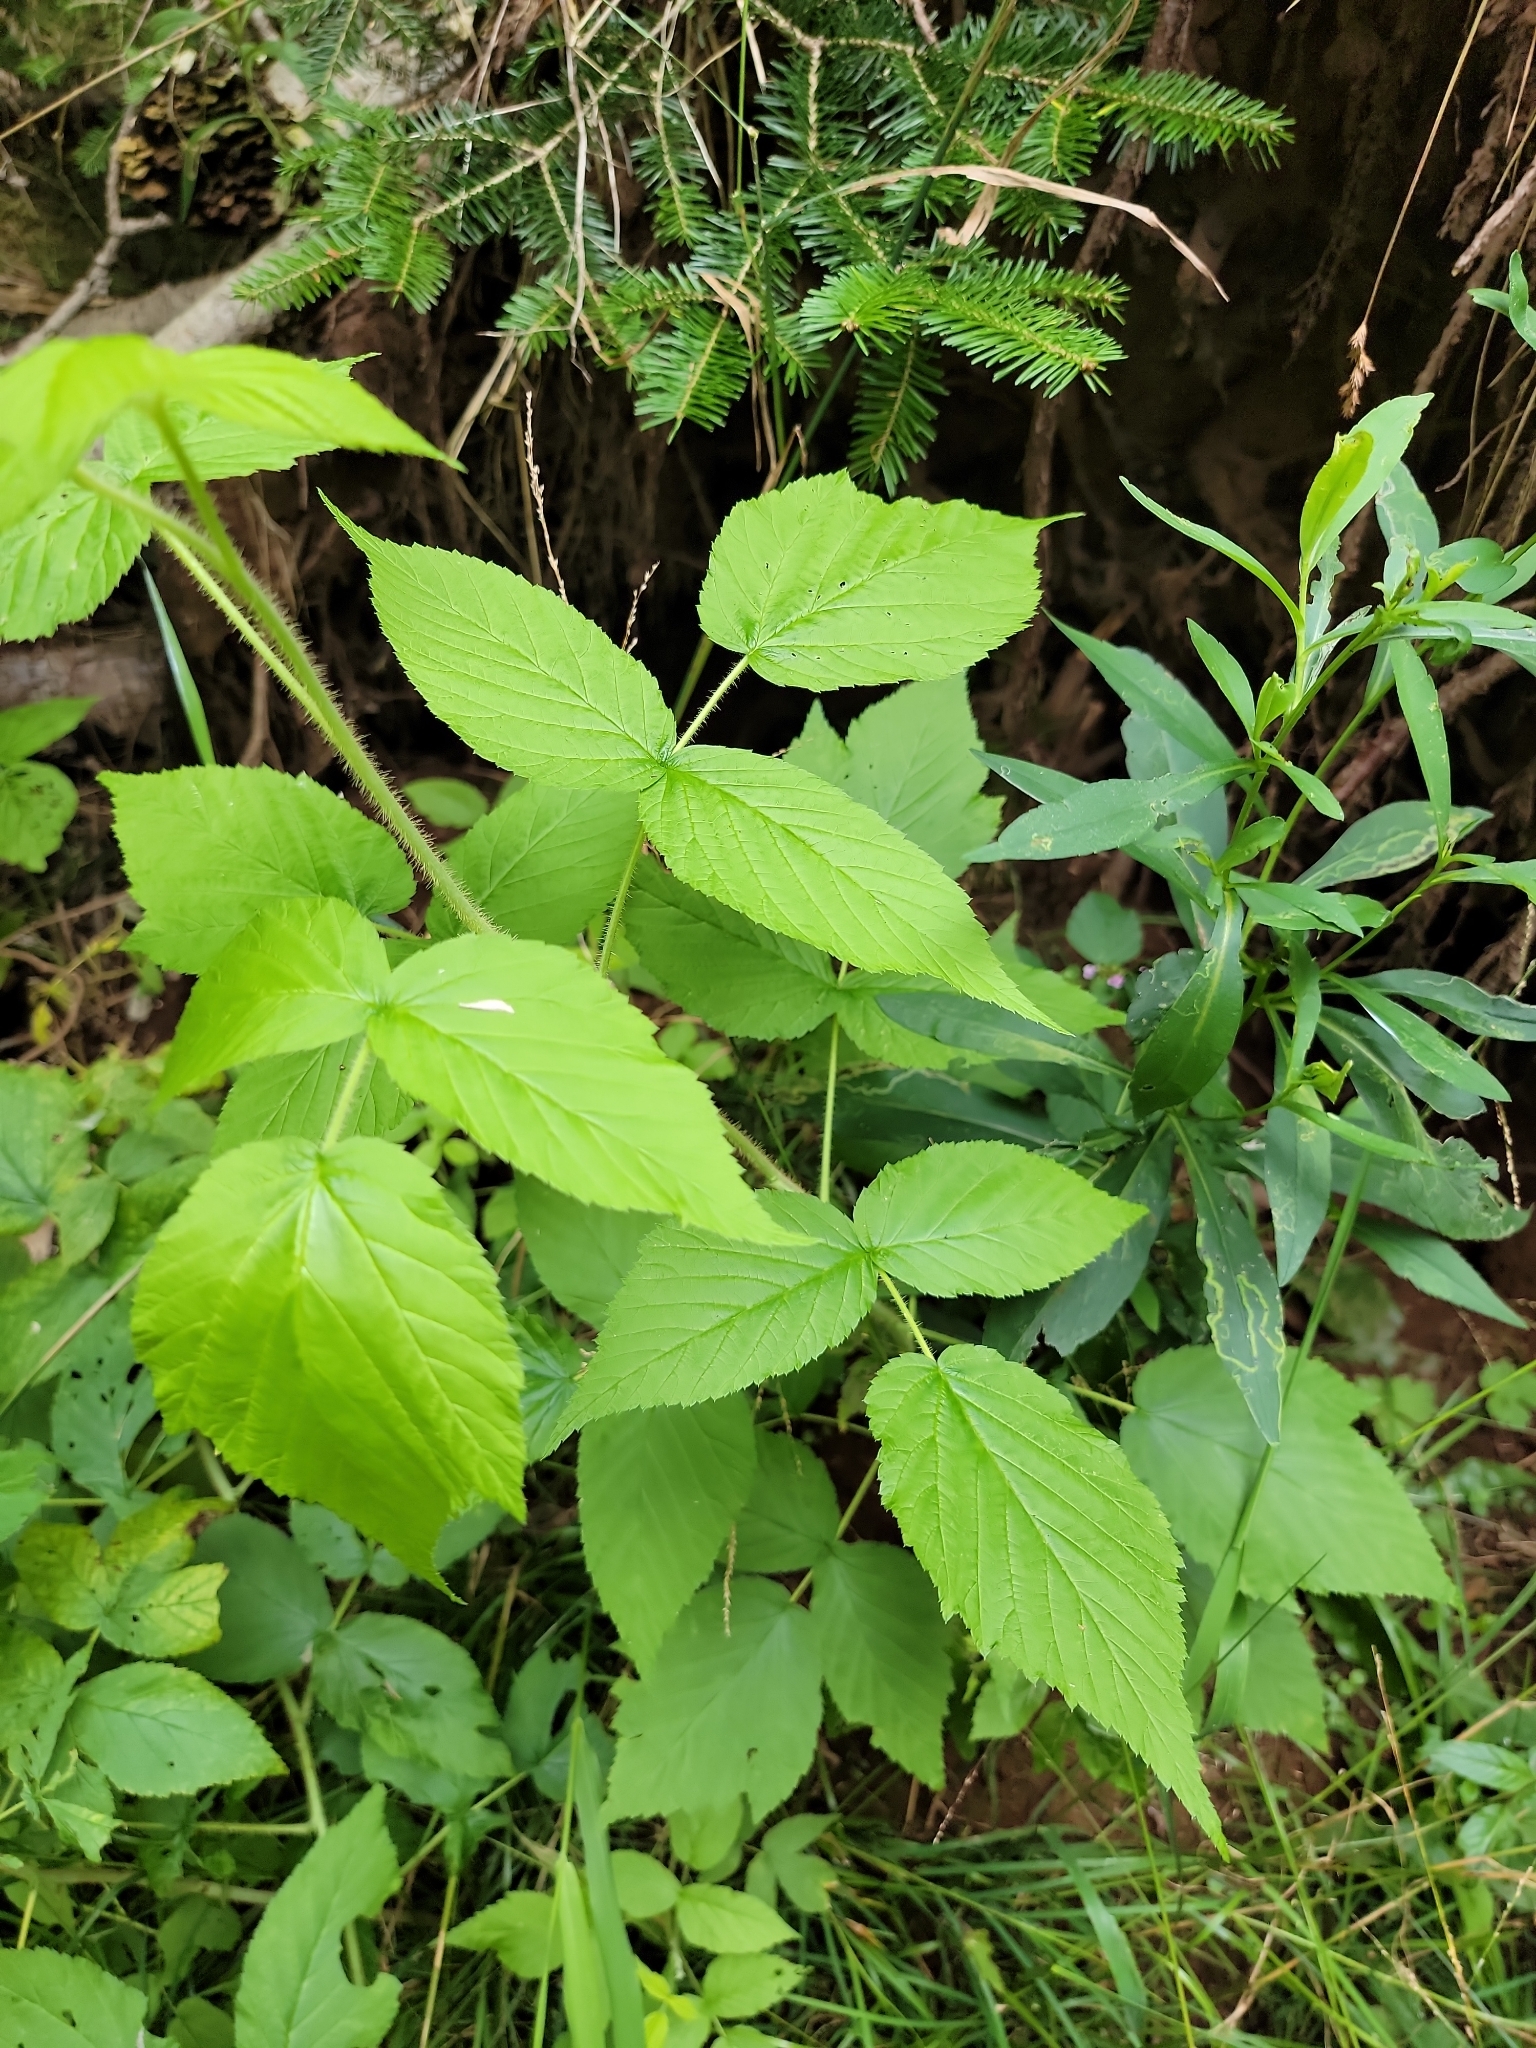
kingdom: Plantae
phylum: Tracheophyta
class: Magnoliopsida
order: Rosales
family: Rosaceae
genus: Rubus
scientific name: Rubus idaeus
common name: Raspberry
